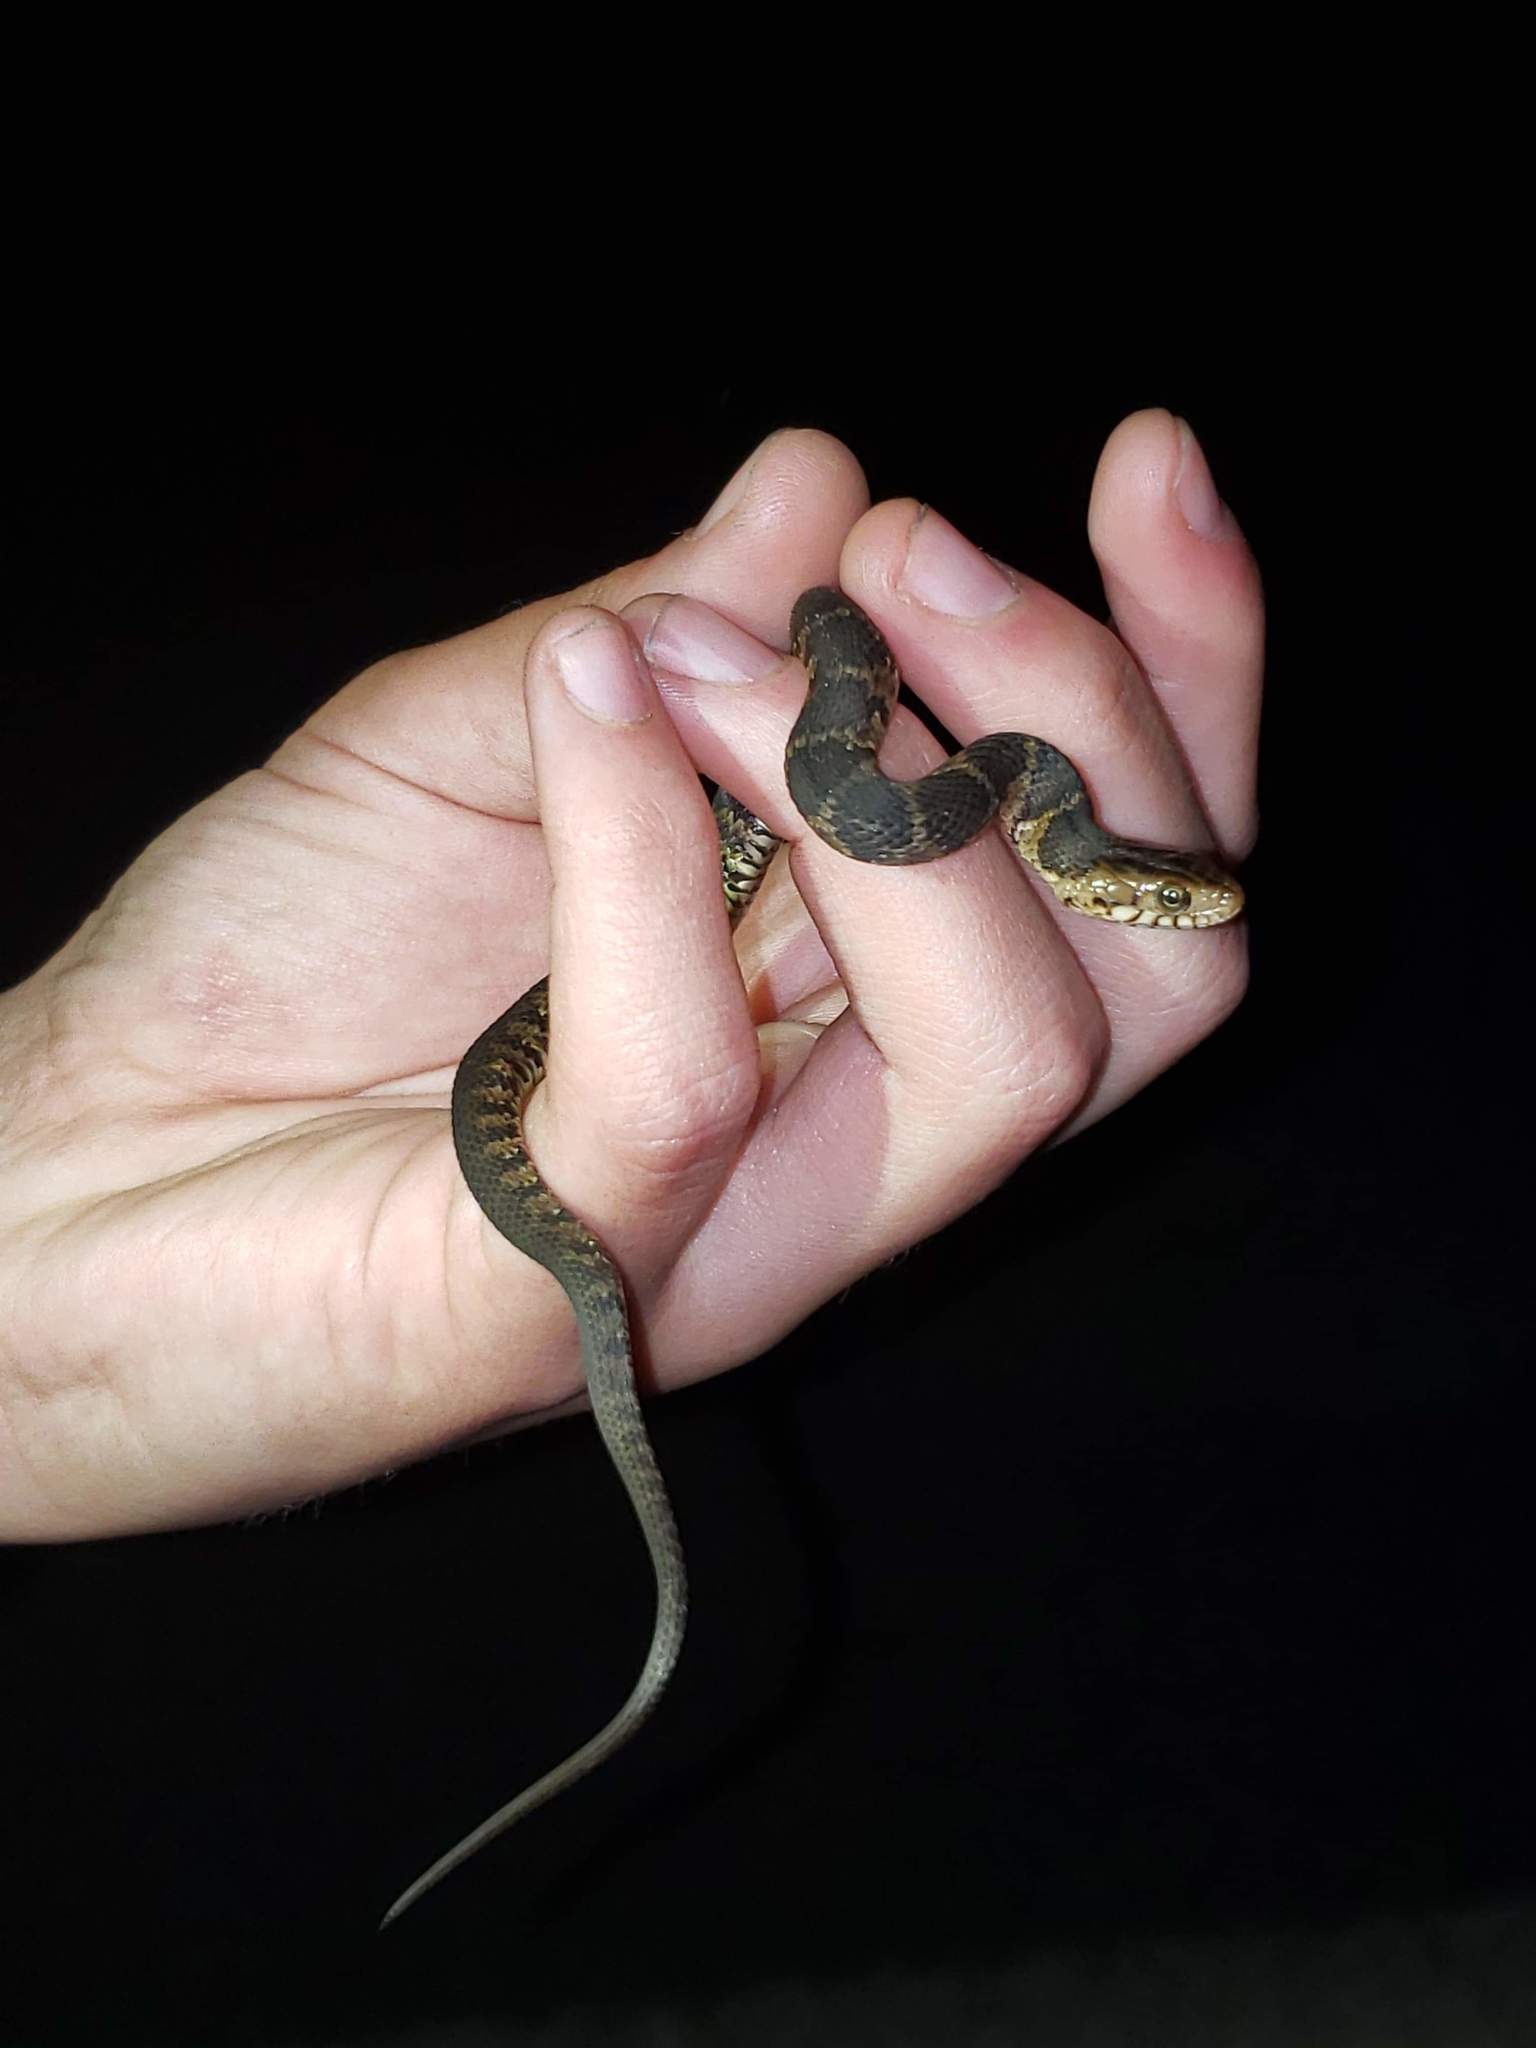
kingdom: Animalia
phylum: Chordata
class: Squamata
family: Colubridae
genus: Nerodia
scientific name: Nerodia fasciata
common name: Southern water snake
